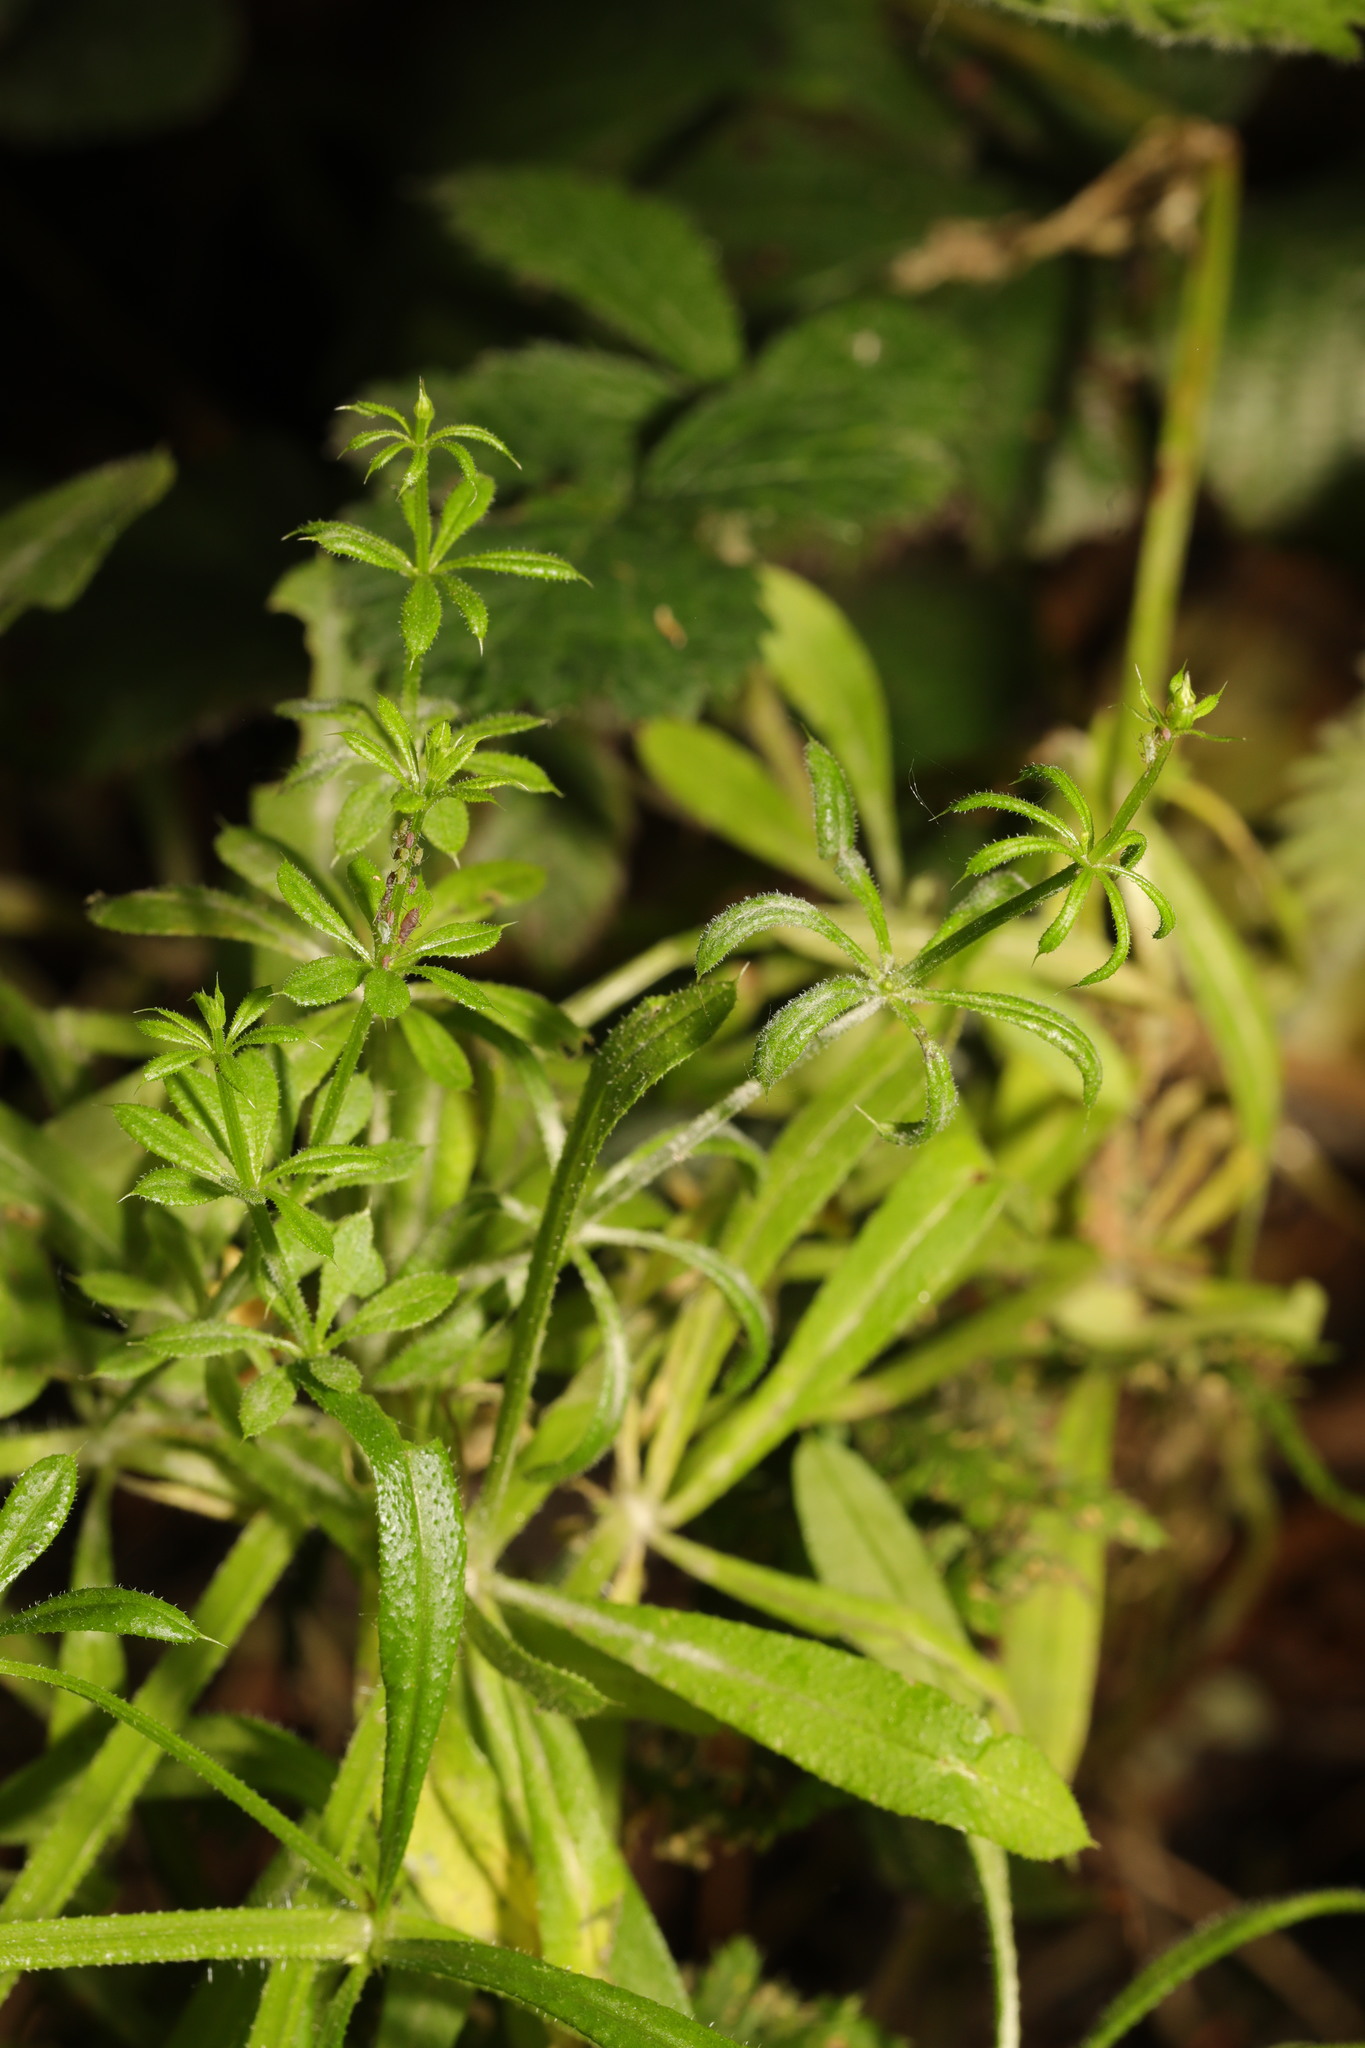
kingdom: Plantae
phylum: Tracheophyta
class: Magnoliopsida
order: Gentianales
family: Rubiaceae
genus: Galium
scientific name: Galium aparine
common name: Cleavers
